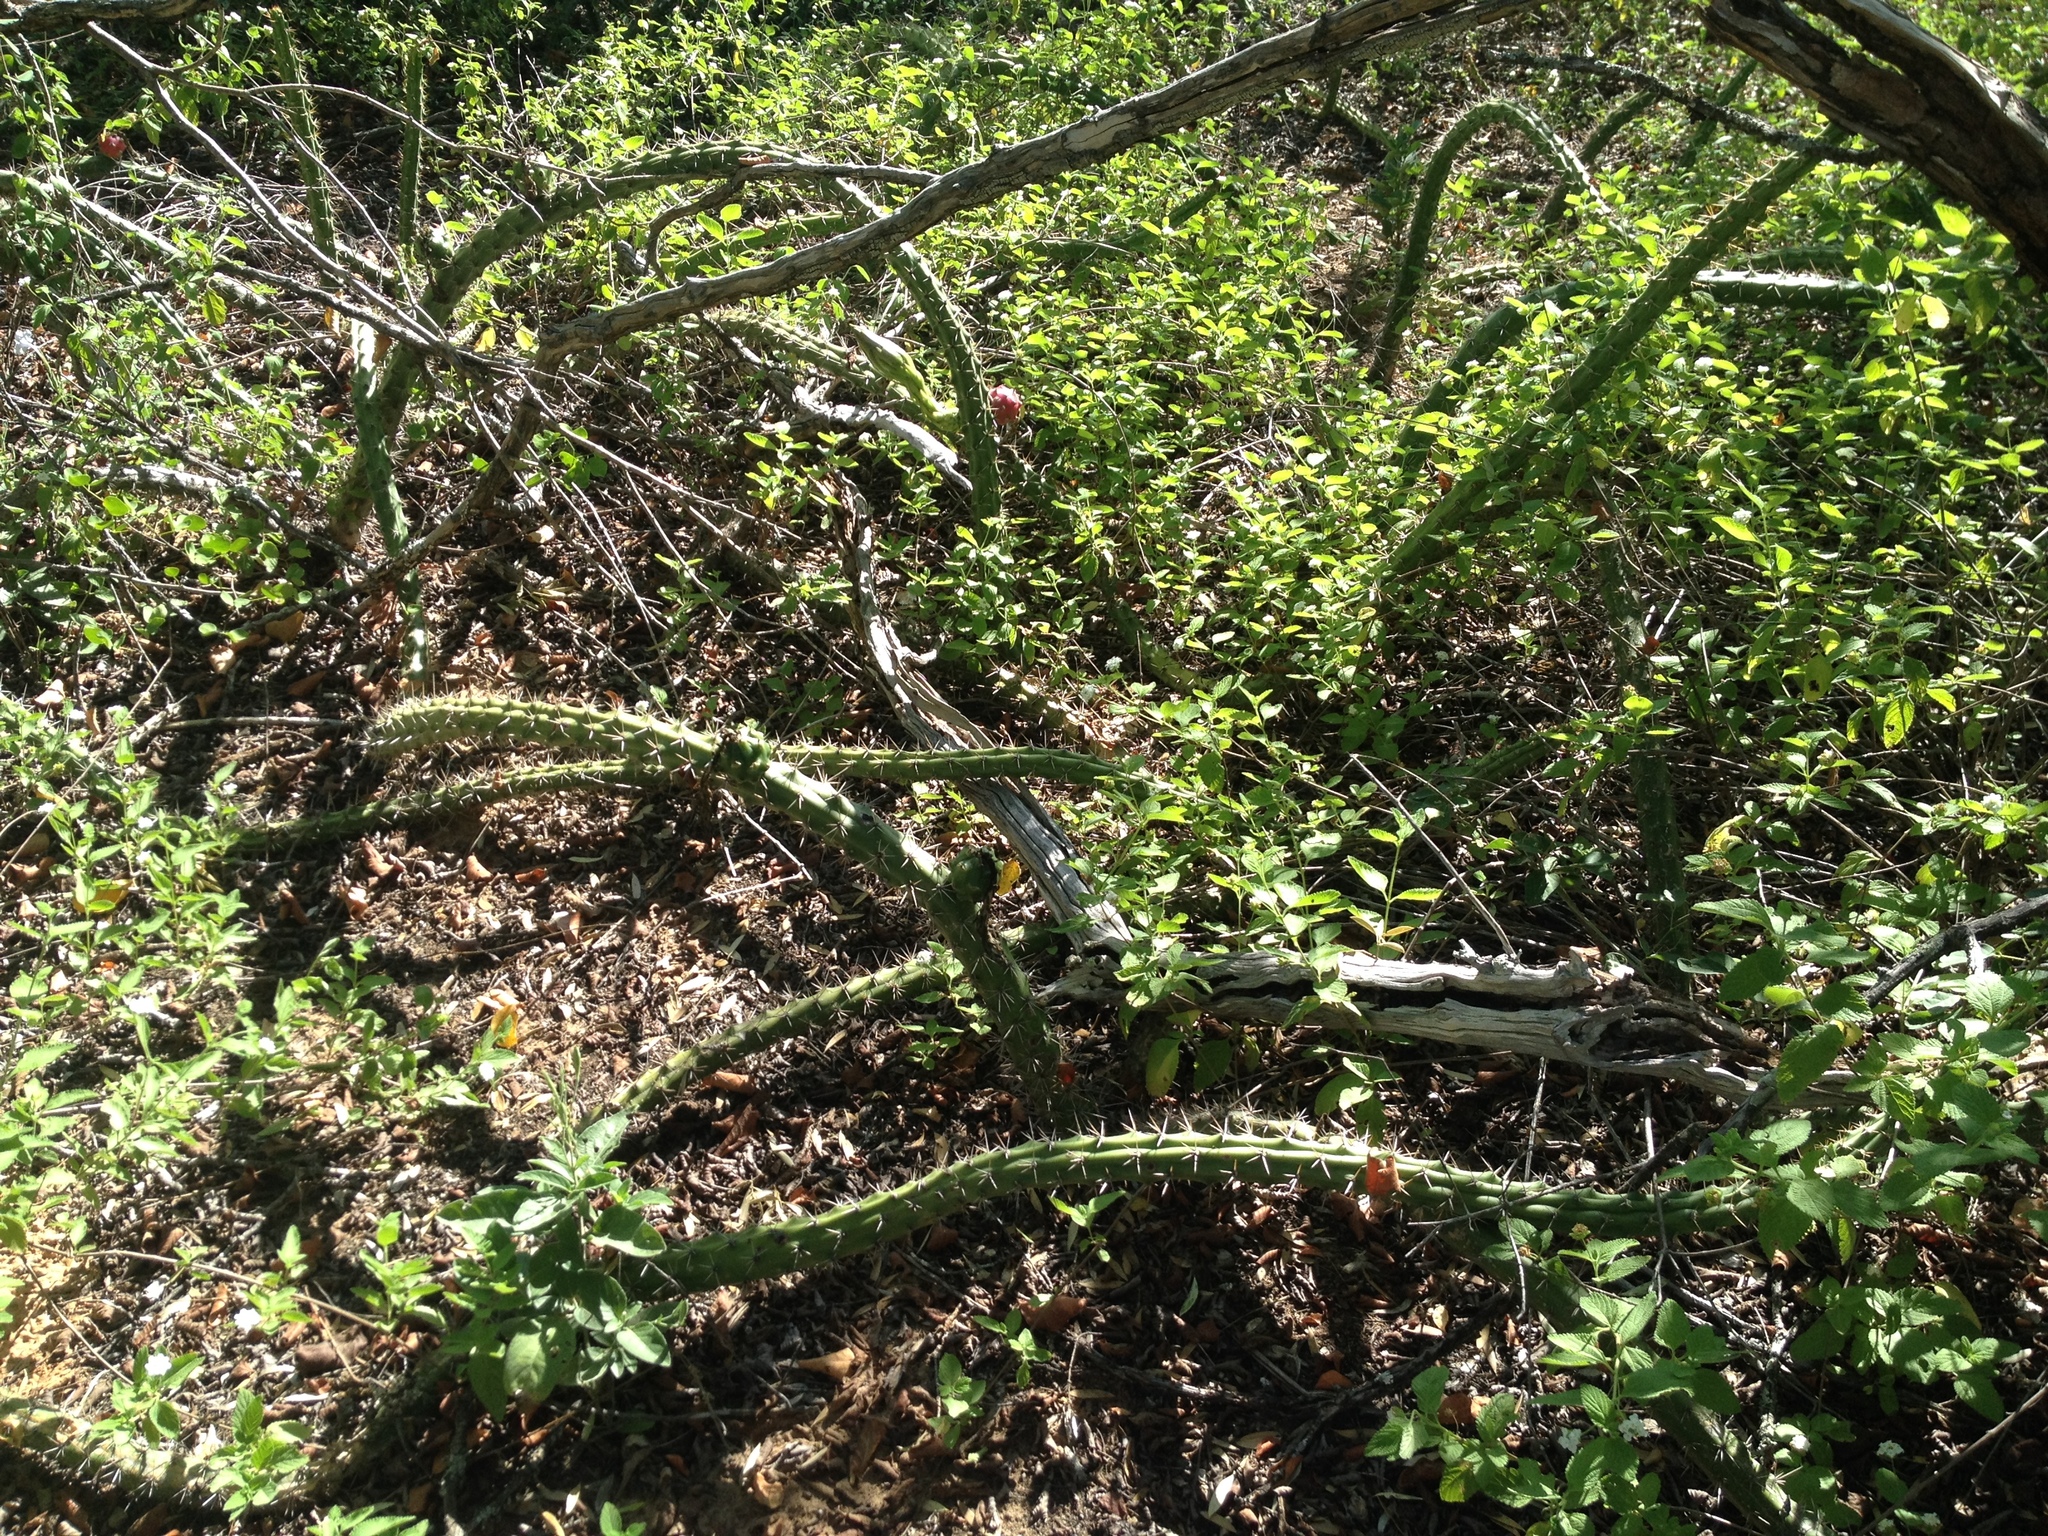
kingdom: Plantae
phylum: Tracheophyta
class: Magnoliopsida
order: Caryophyllales
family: Cactaceae
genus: Harrisia
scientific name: Harrisia pomanensis
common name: Midnight-lady
